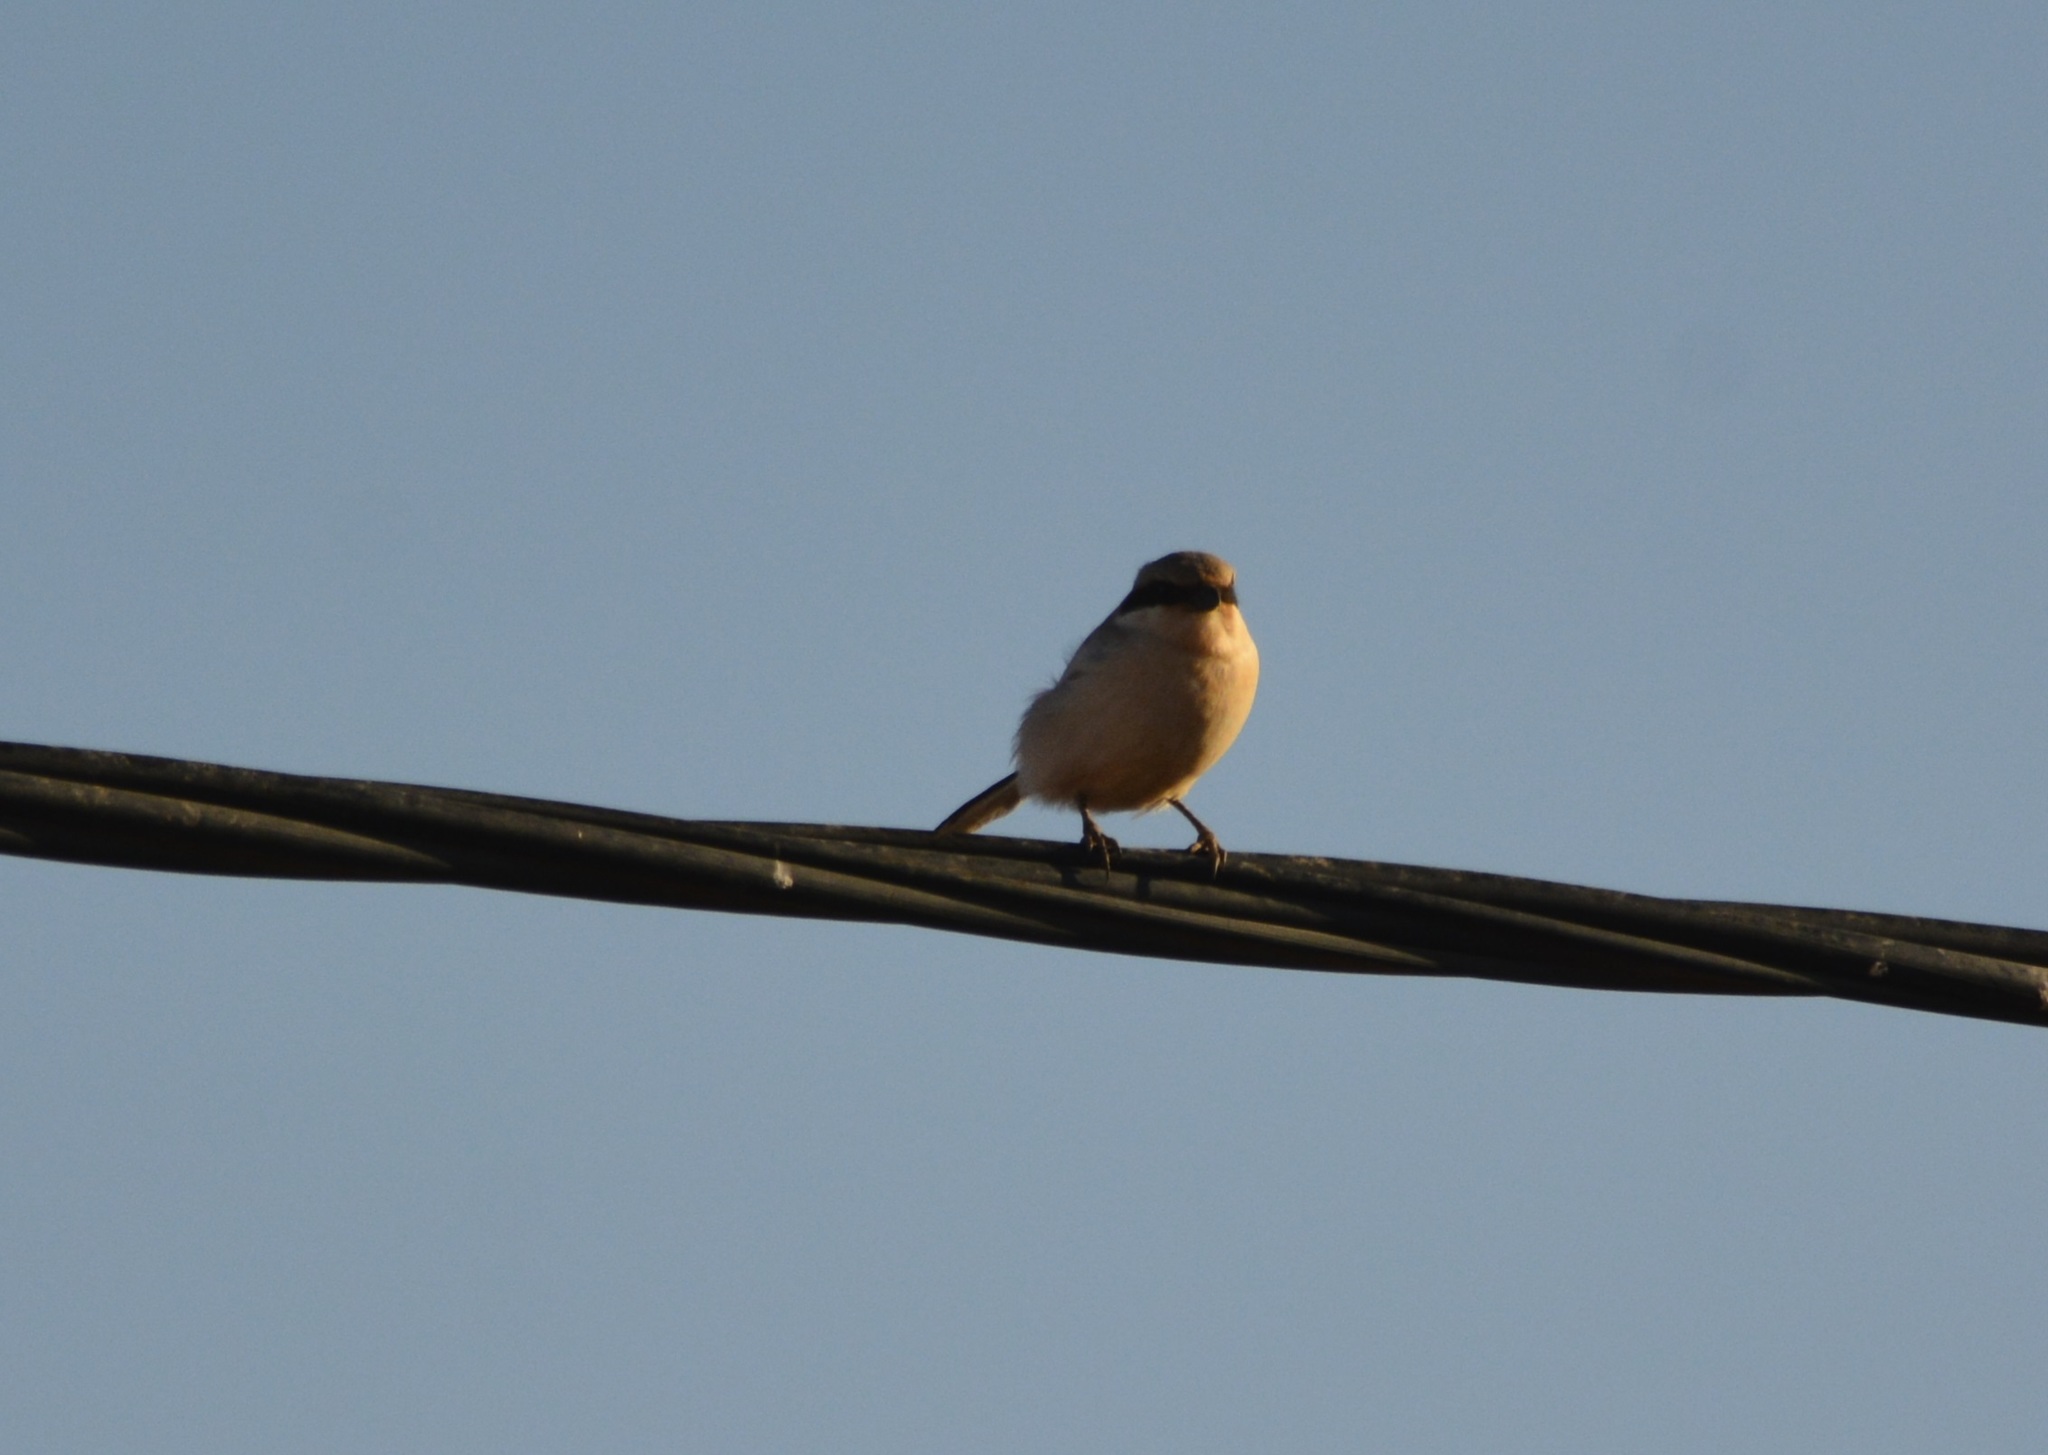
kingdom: Animalia
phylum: Chordata
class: Aves
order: Passeriformes
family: Laniidae
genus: Lanius
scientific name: Lanius excubitor
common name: Great grey shrike
